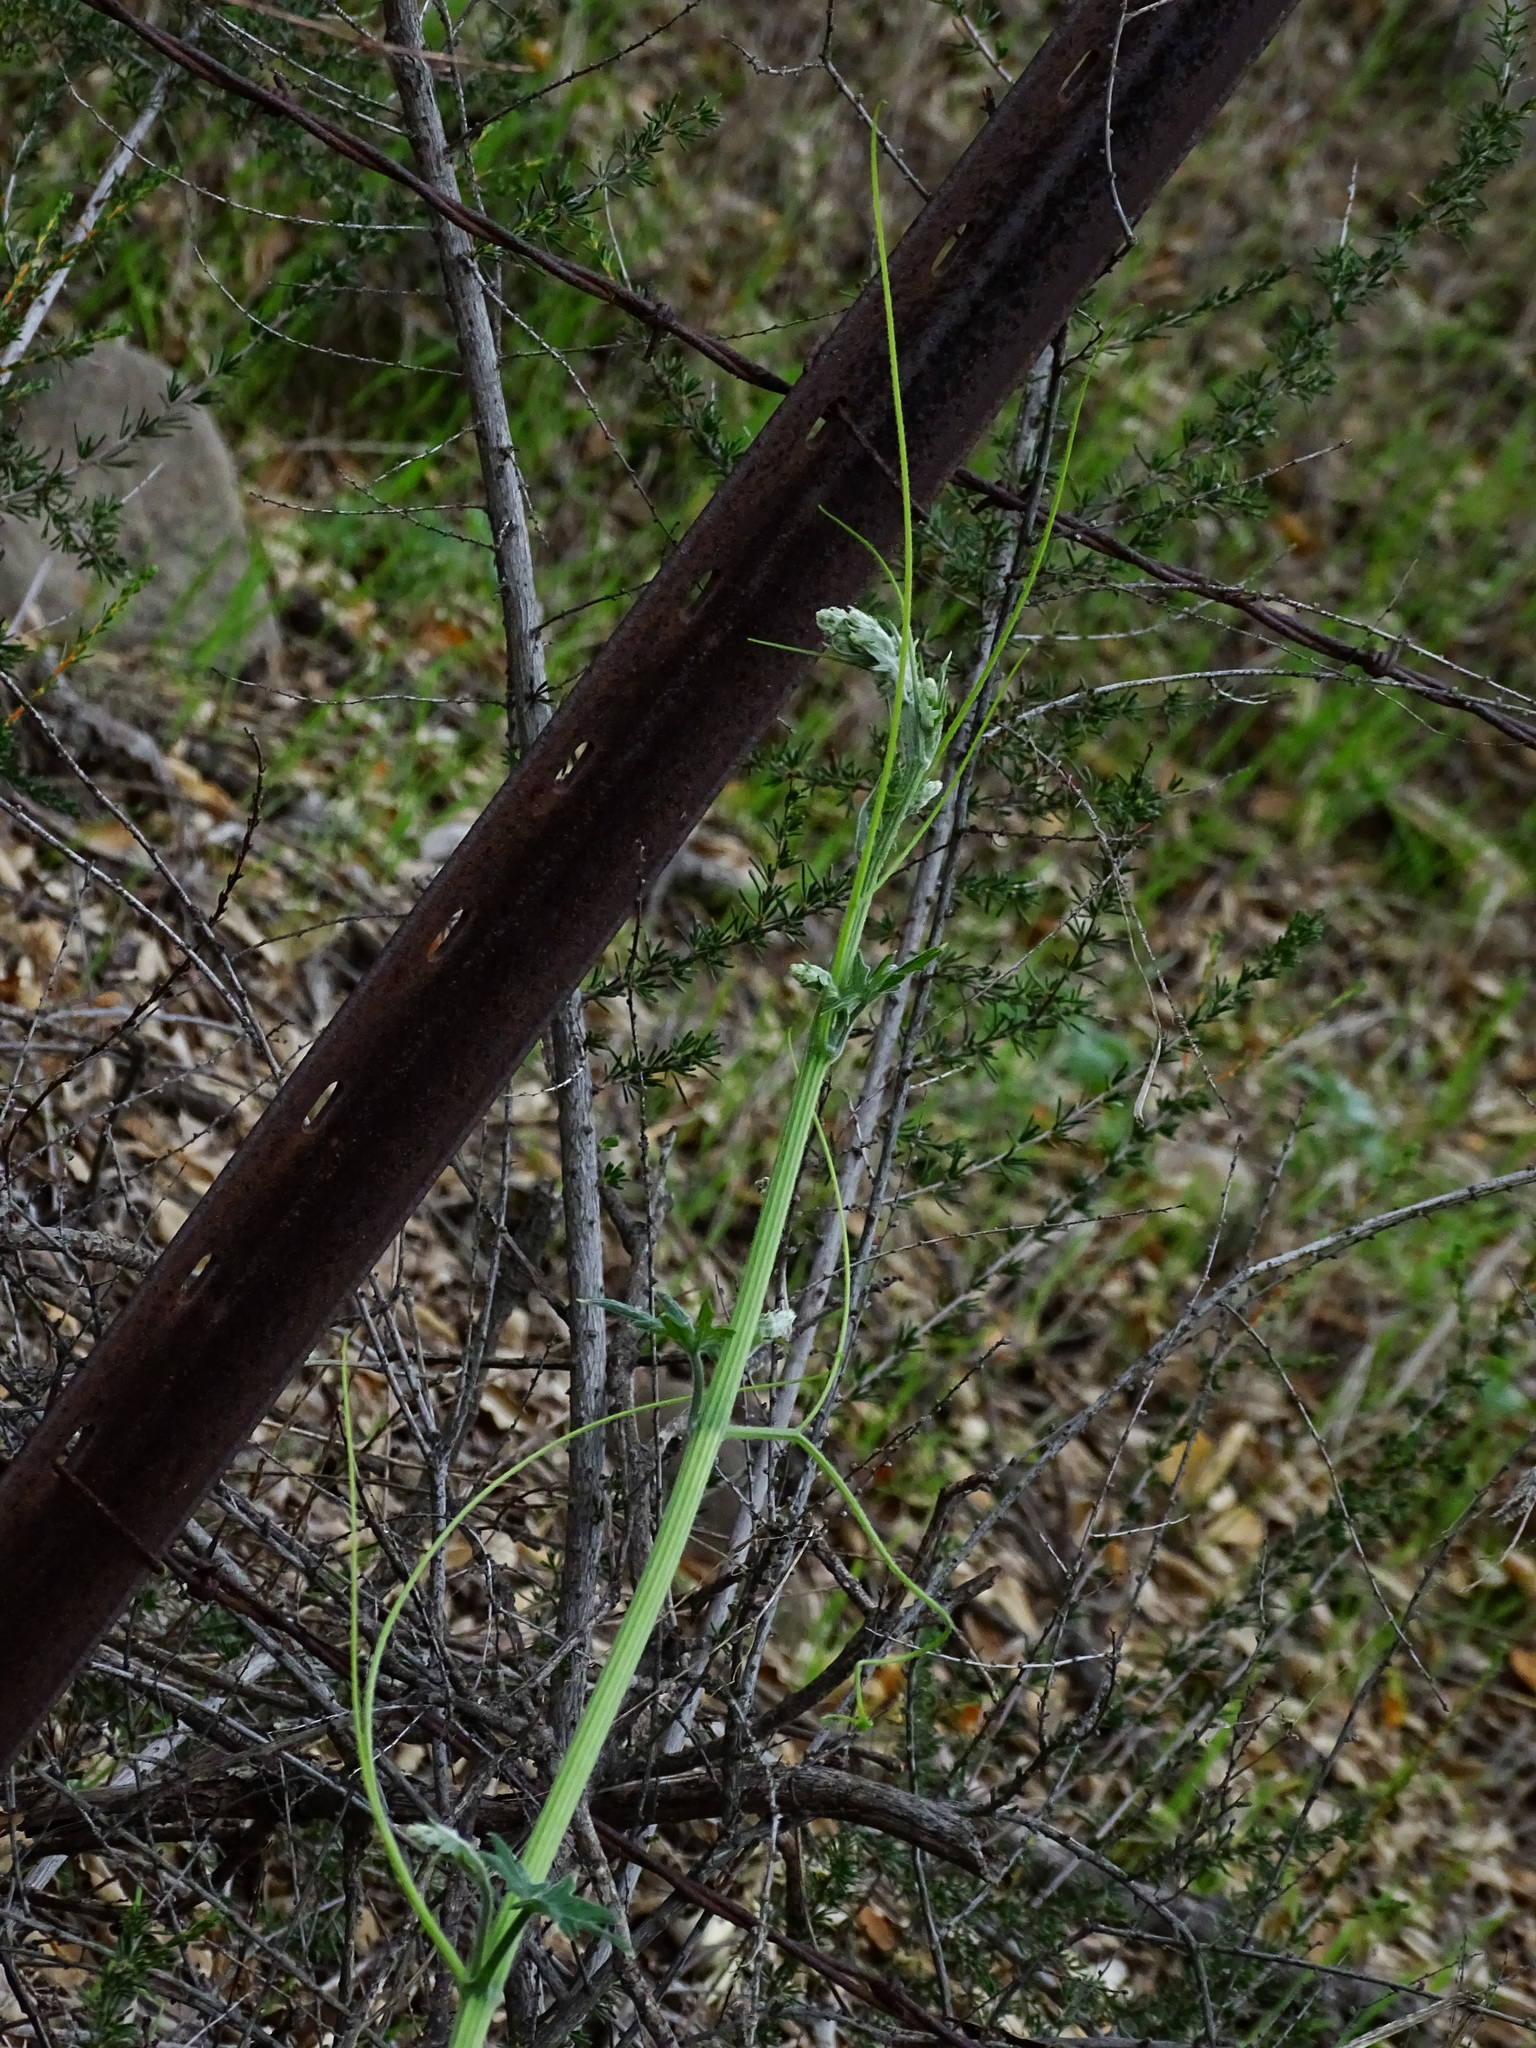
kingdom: Plantae
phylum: Tracheophyta
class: Magnoliopsida
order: Cucurbitales
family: Cucurbitaceae
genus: Marah
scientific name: Marah macrocarpa
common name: Cucamonga manroot
